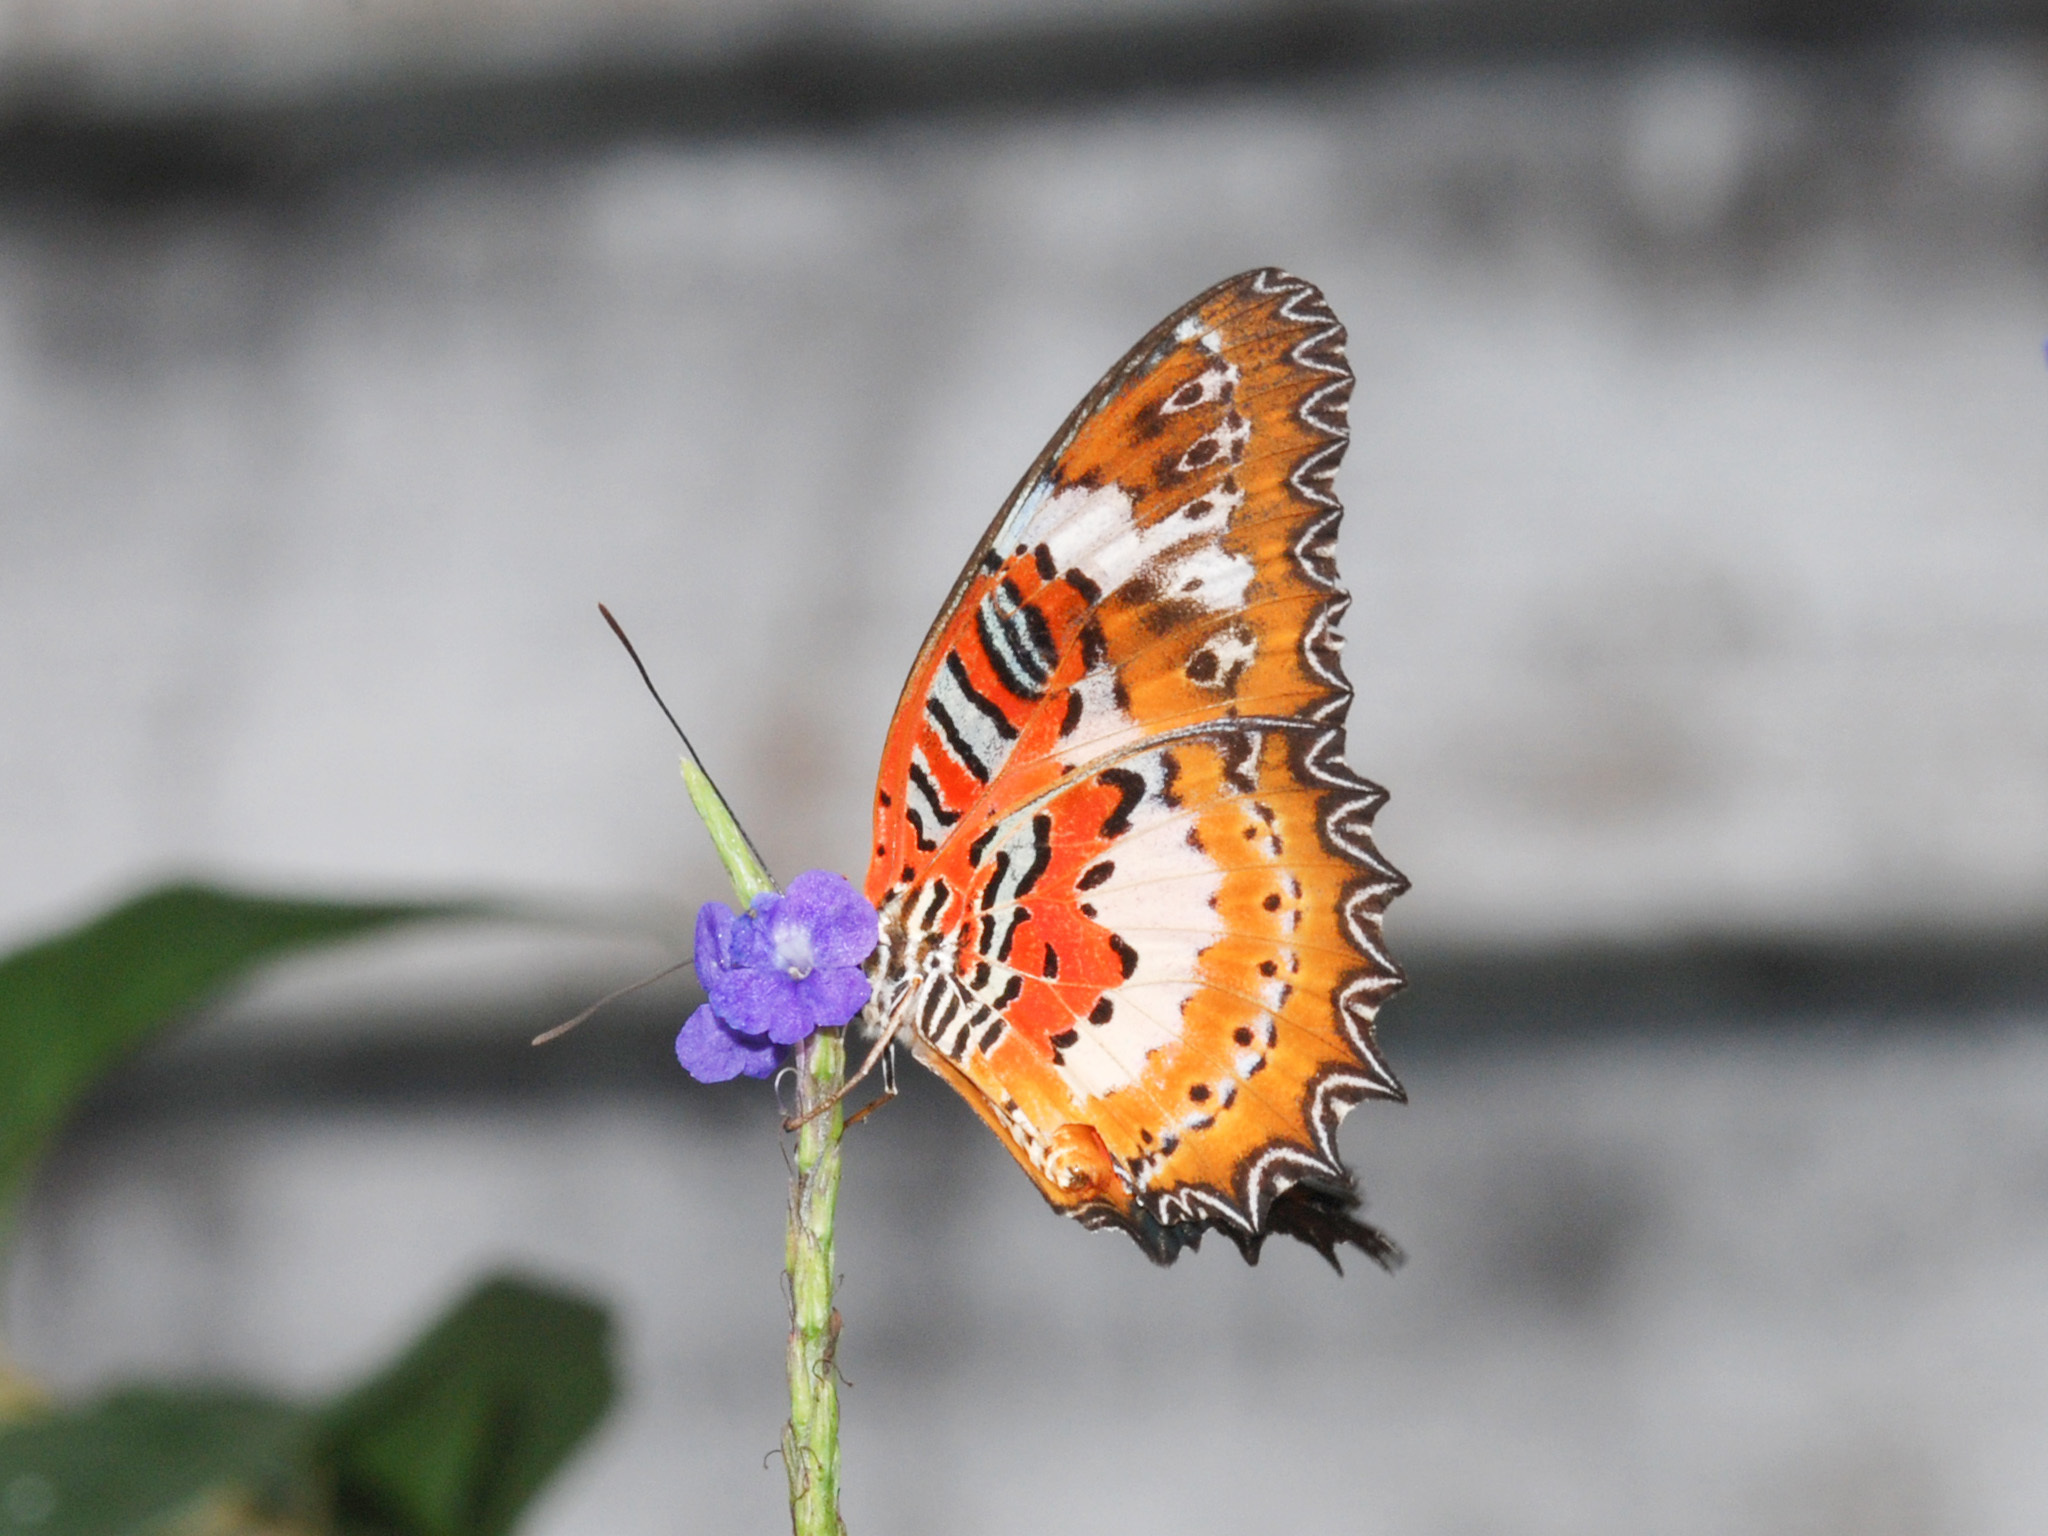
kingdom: Animalia
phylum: Arthropoda
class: Insecta
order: Lepidoptera
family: Nymphalidae
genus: Cethosia
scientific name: Cethosia penthesilea
